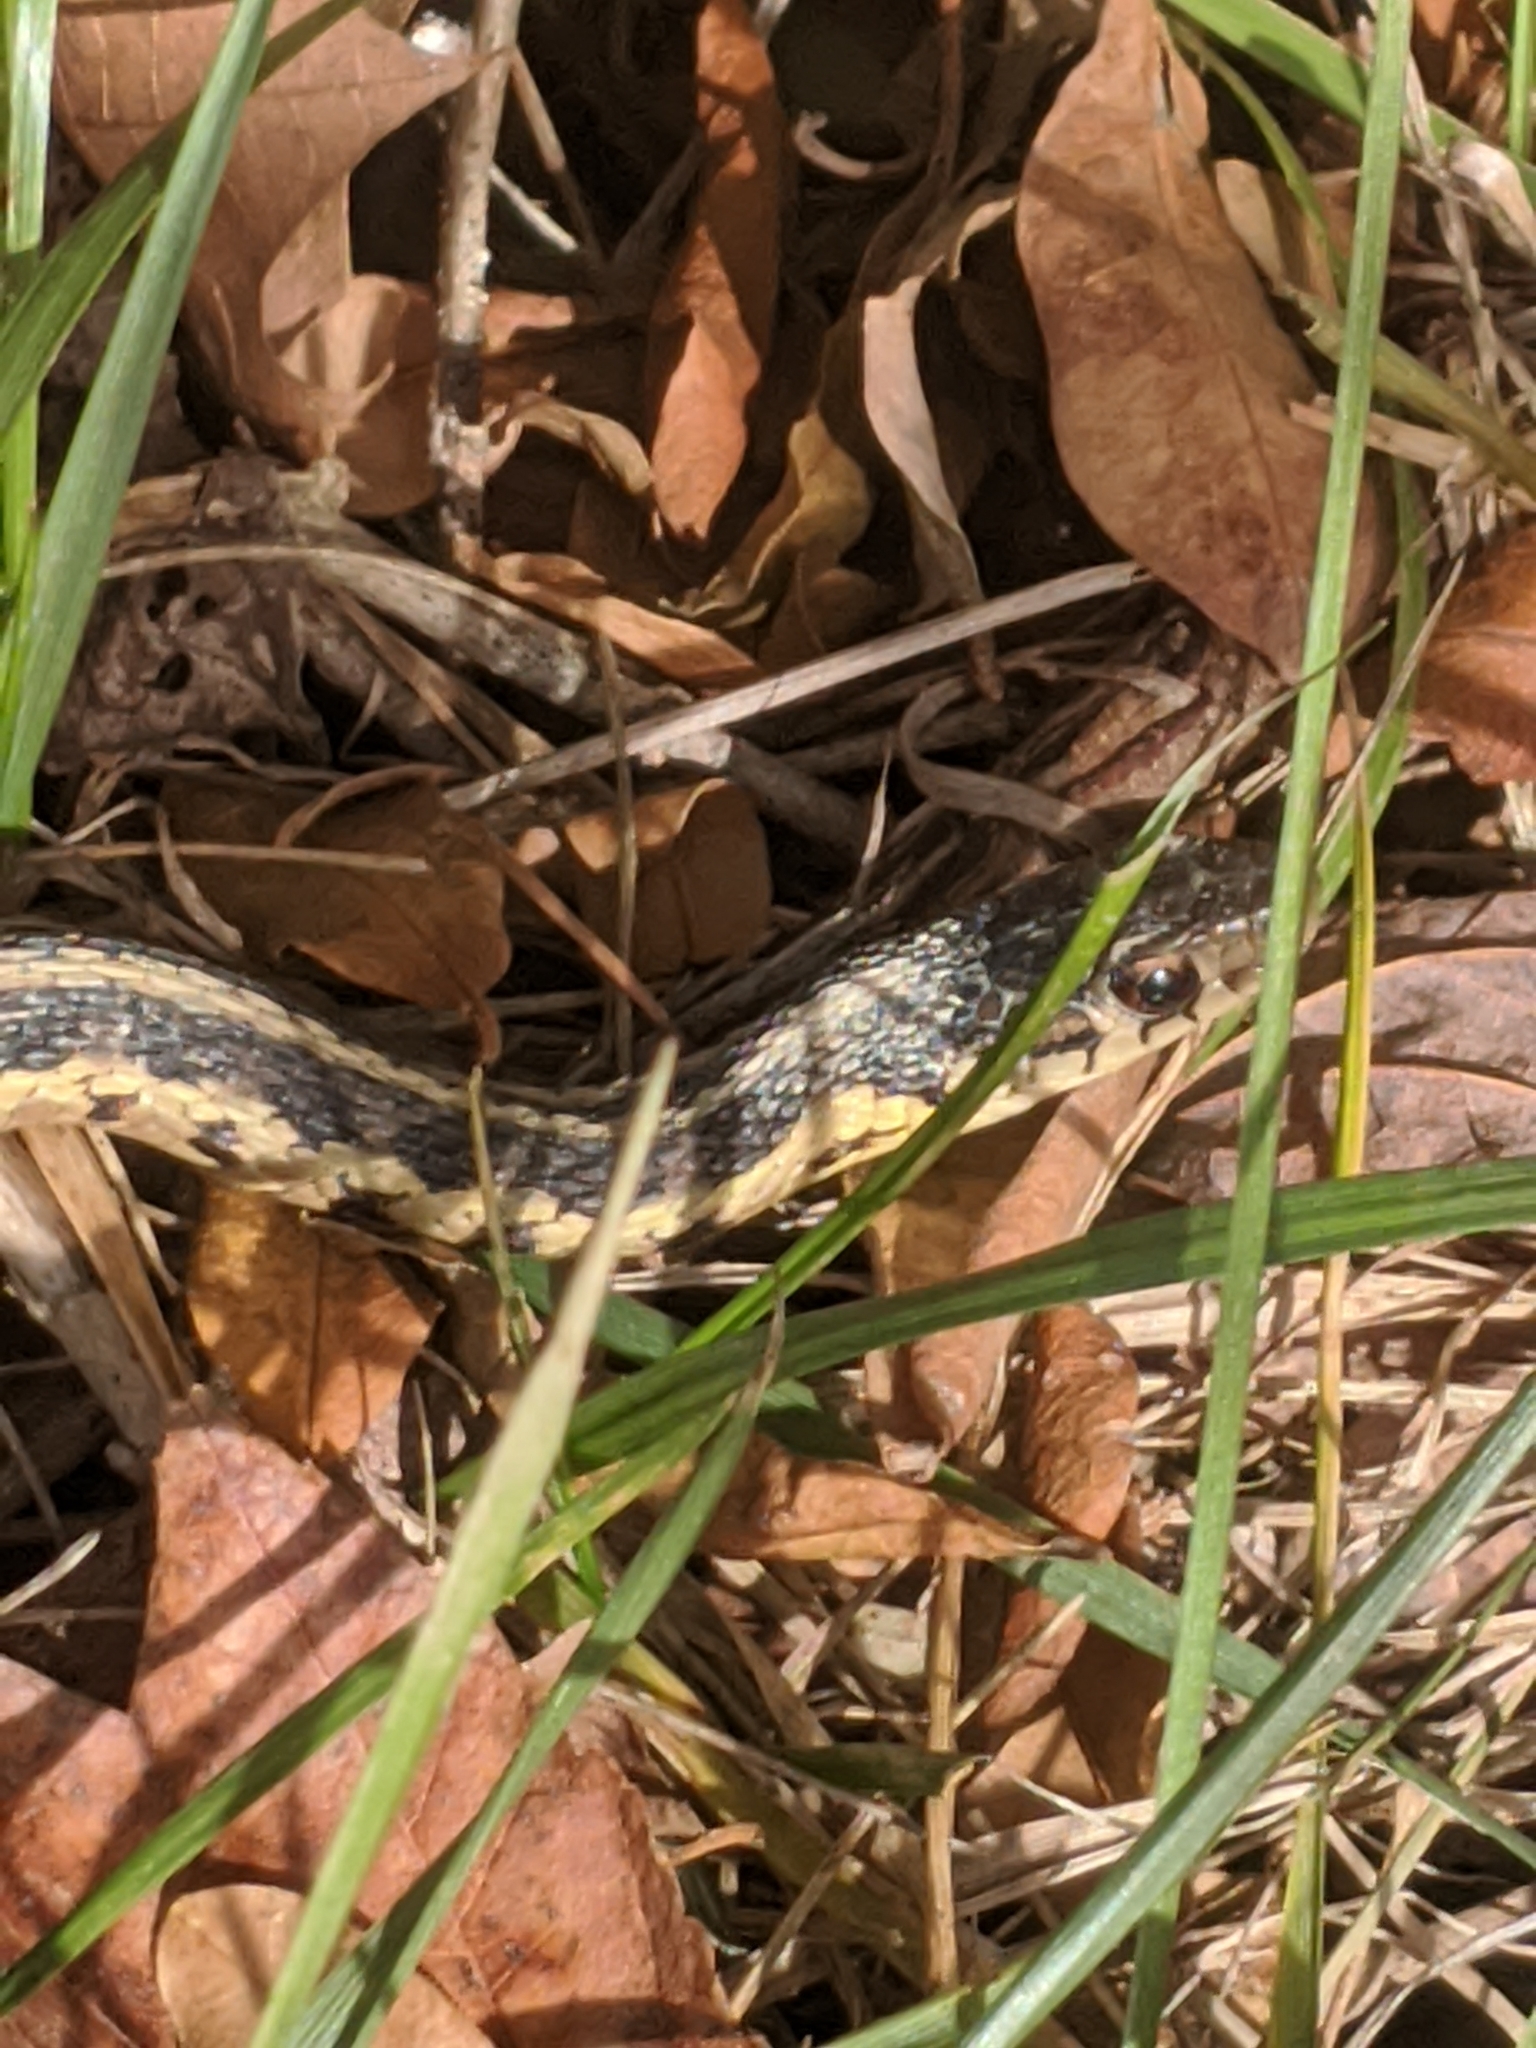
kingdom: Animalia
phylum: Chordata
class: Squamata
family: Colubridae
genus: Thamnophis
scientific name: Thamnophis sirtalis
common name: Common garter snake
